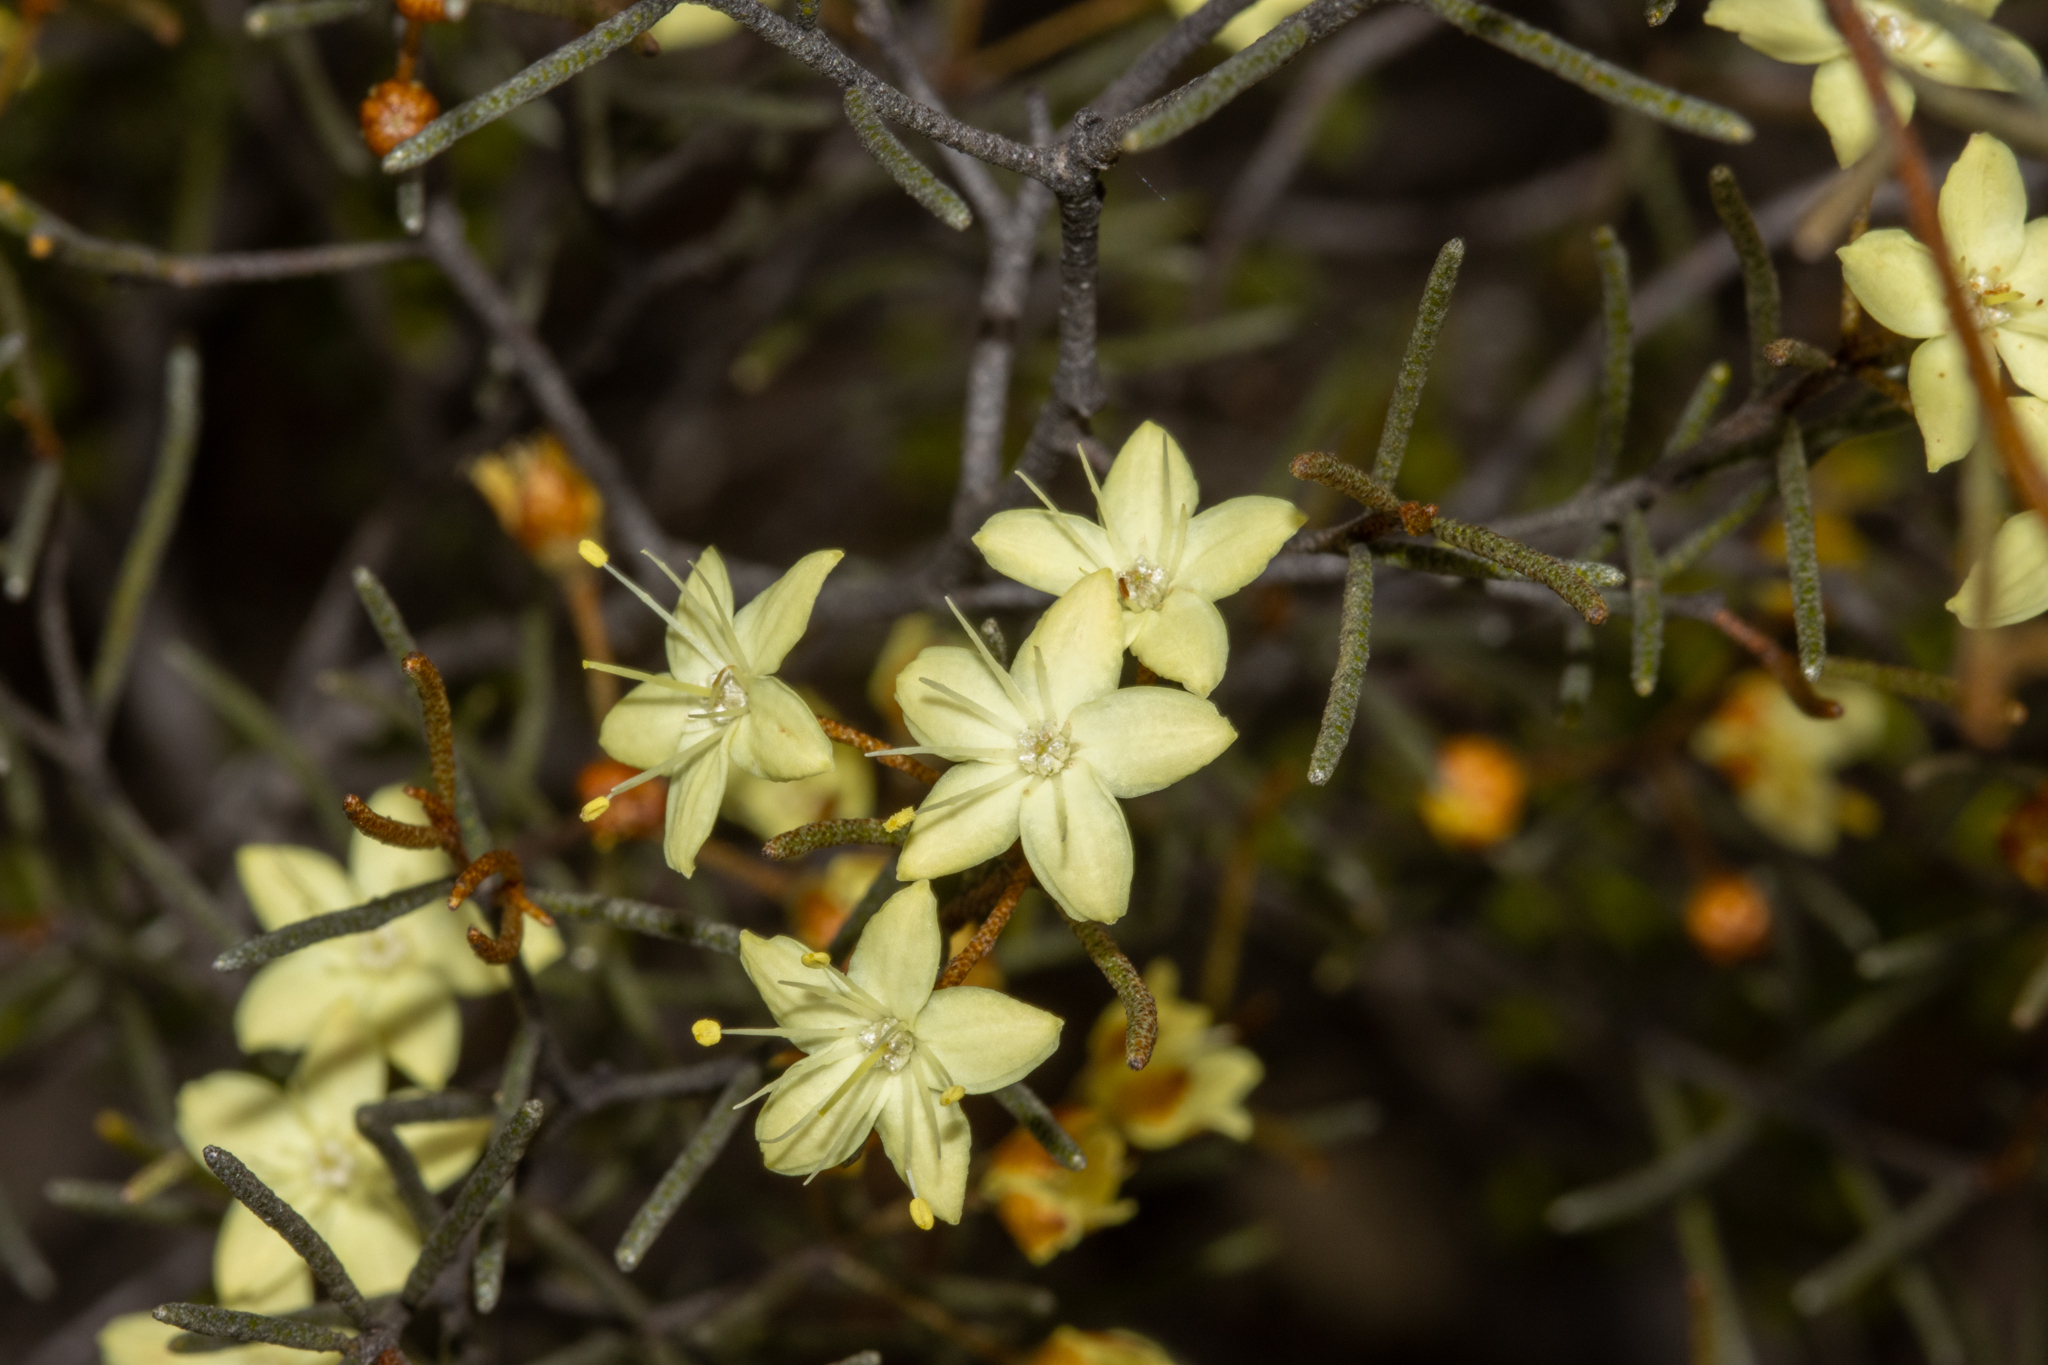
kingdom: Plantae
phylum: Tracheophyta
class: Magnoliopsida
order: Sapindales
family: Rutaceae
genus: Phebalium
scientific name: Phebalium filifolium
